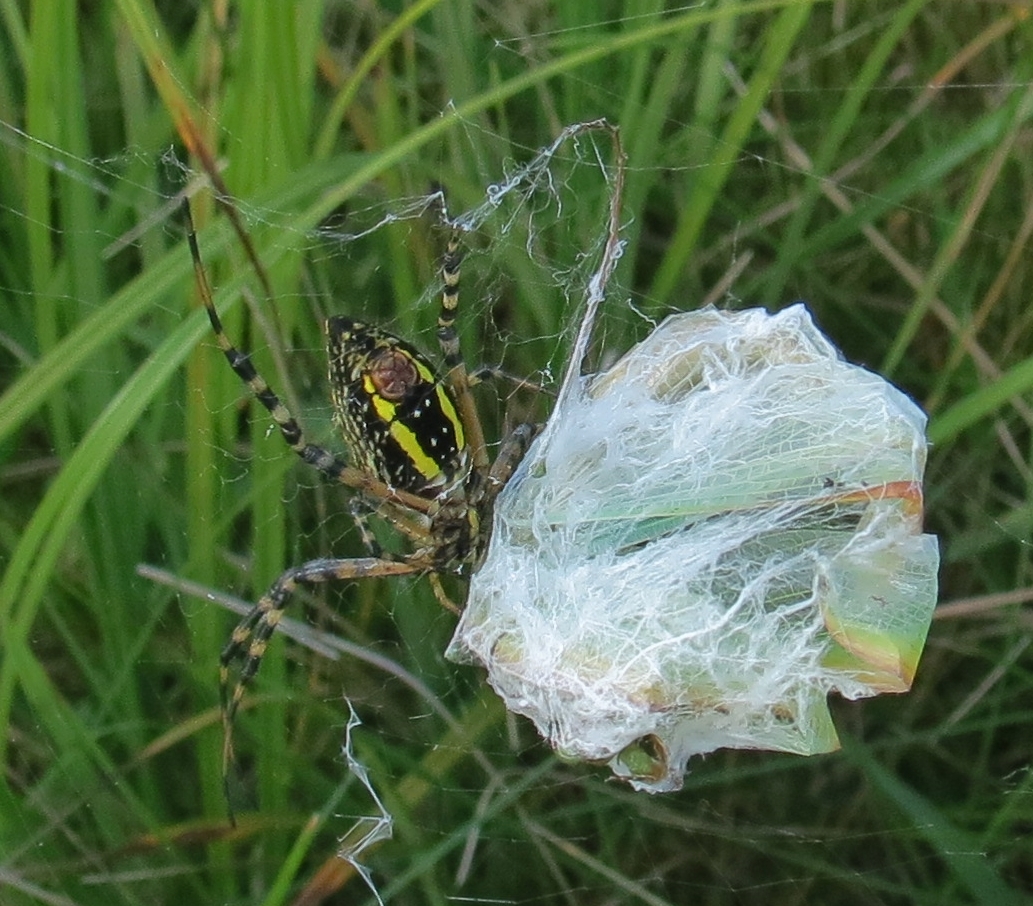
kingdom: Animalia
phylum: Arthropoda
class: Arachnida
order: Araneae
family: Araneidae
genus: Argiope
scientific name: Argiope trifasciata
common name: Banded garden spider
